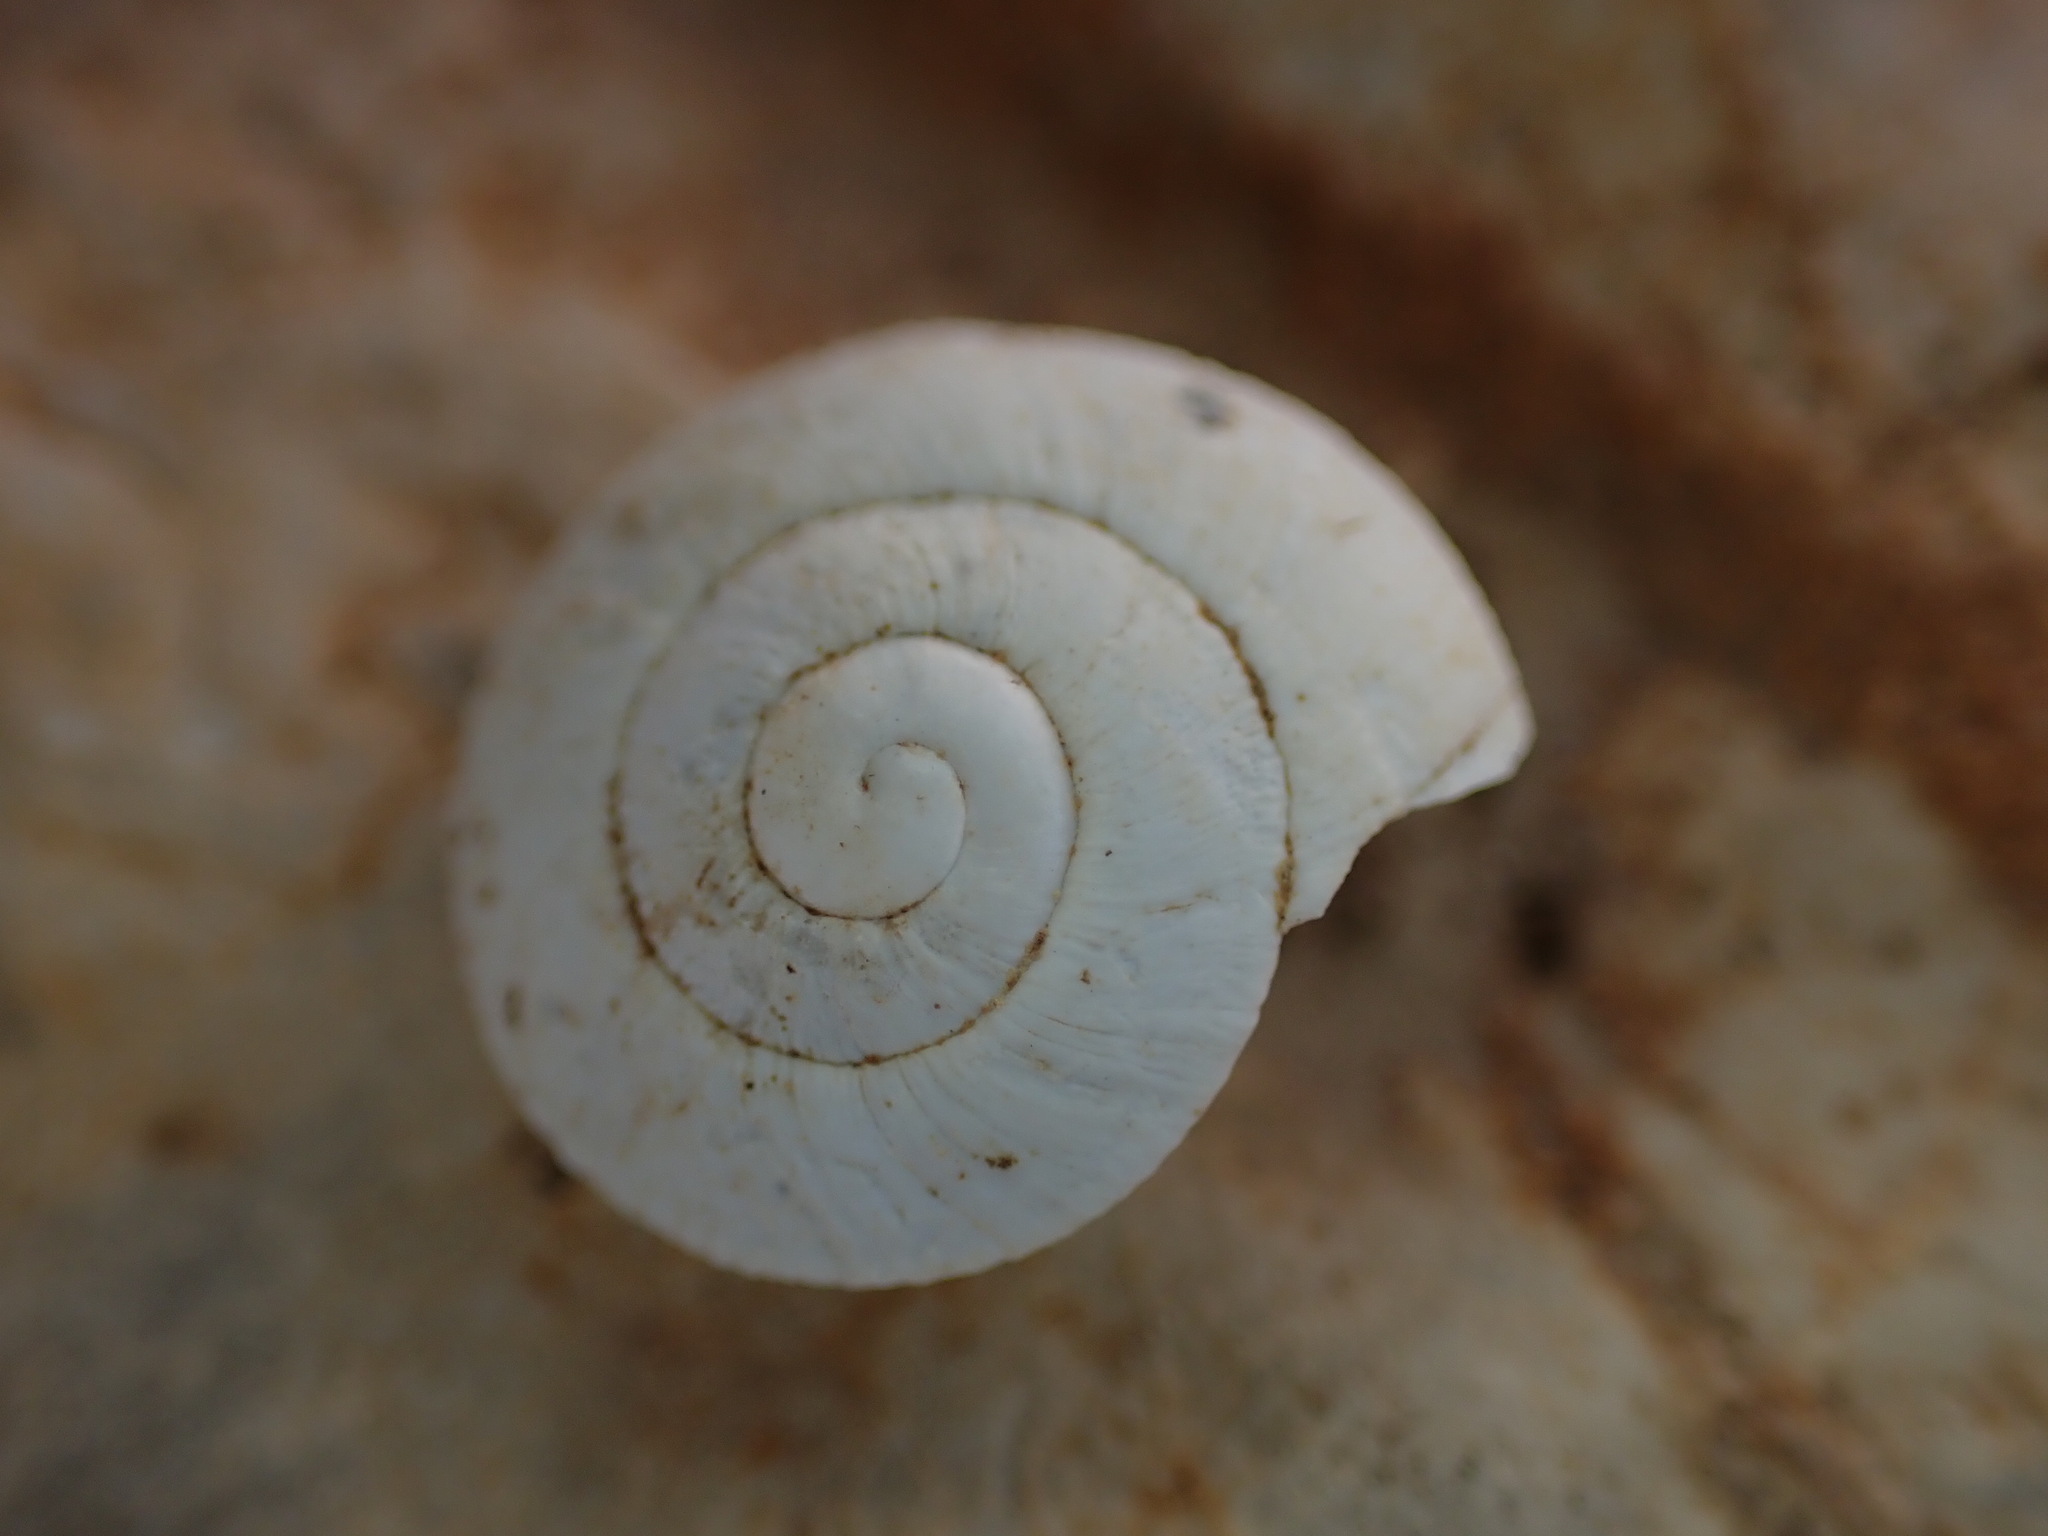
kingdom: Animalia
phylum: Mollusca
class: Gastropoda
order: Stylommatophora
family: Sphincterochilidae
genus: Sphincterochila
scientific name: Sphincterochila candidissima
